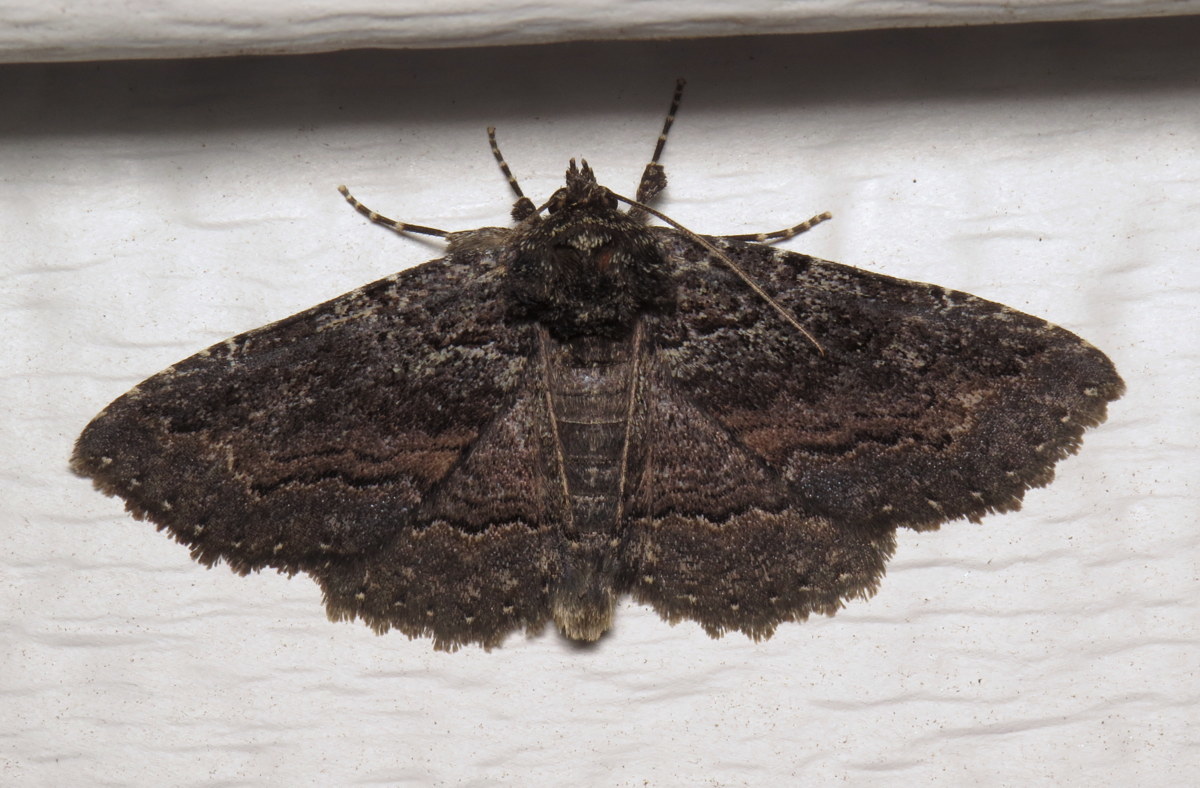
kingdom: Animalia
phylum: Arthropoda
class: Insecta
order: Lepidoptera
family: Erebidae
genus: Zale
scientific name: Zale aeruginosa
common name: Green-dusted zale moth
